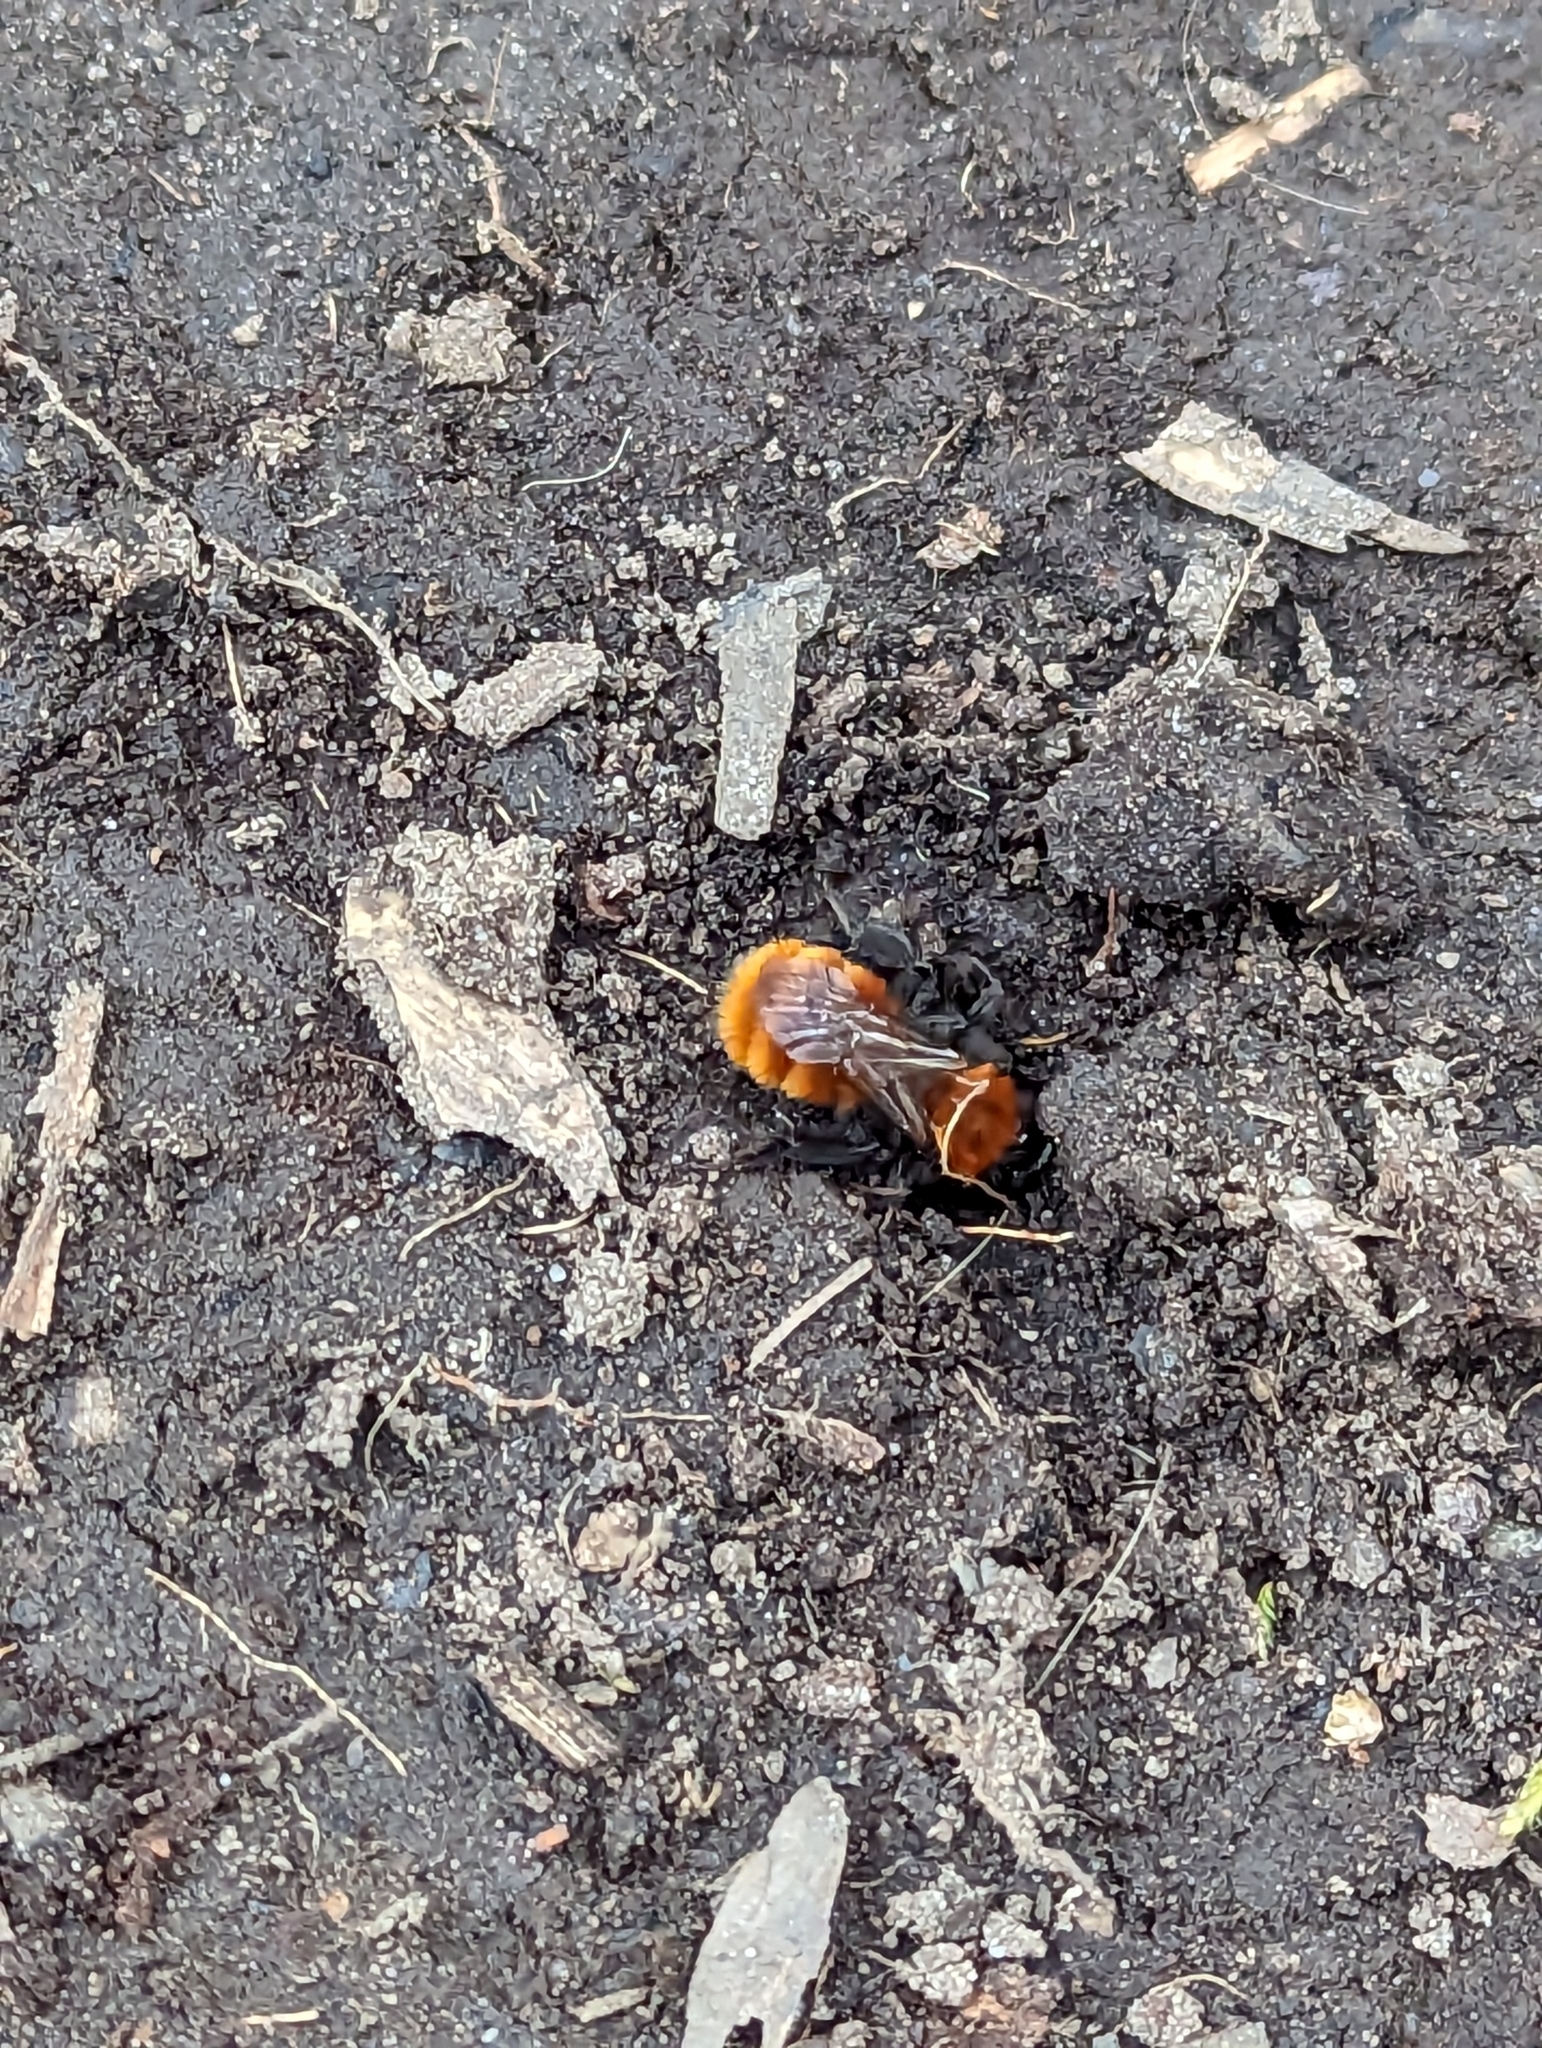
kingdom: Animalia
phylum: Arthropoda
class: Insecta
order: Hymenoptera
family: Andrenidae
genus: Andrena
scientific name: Andrena fulva
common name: Tawny mining bee
